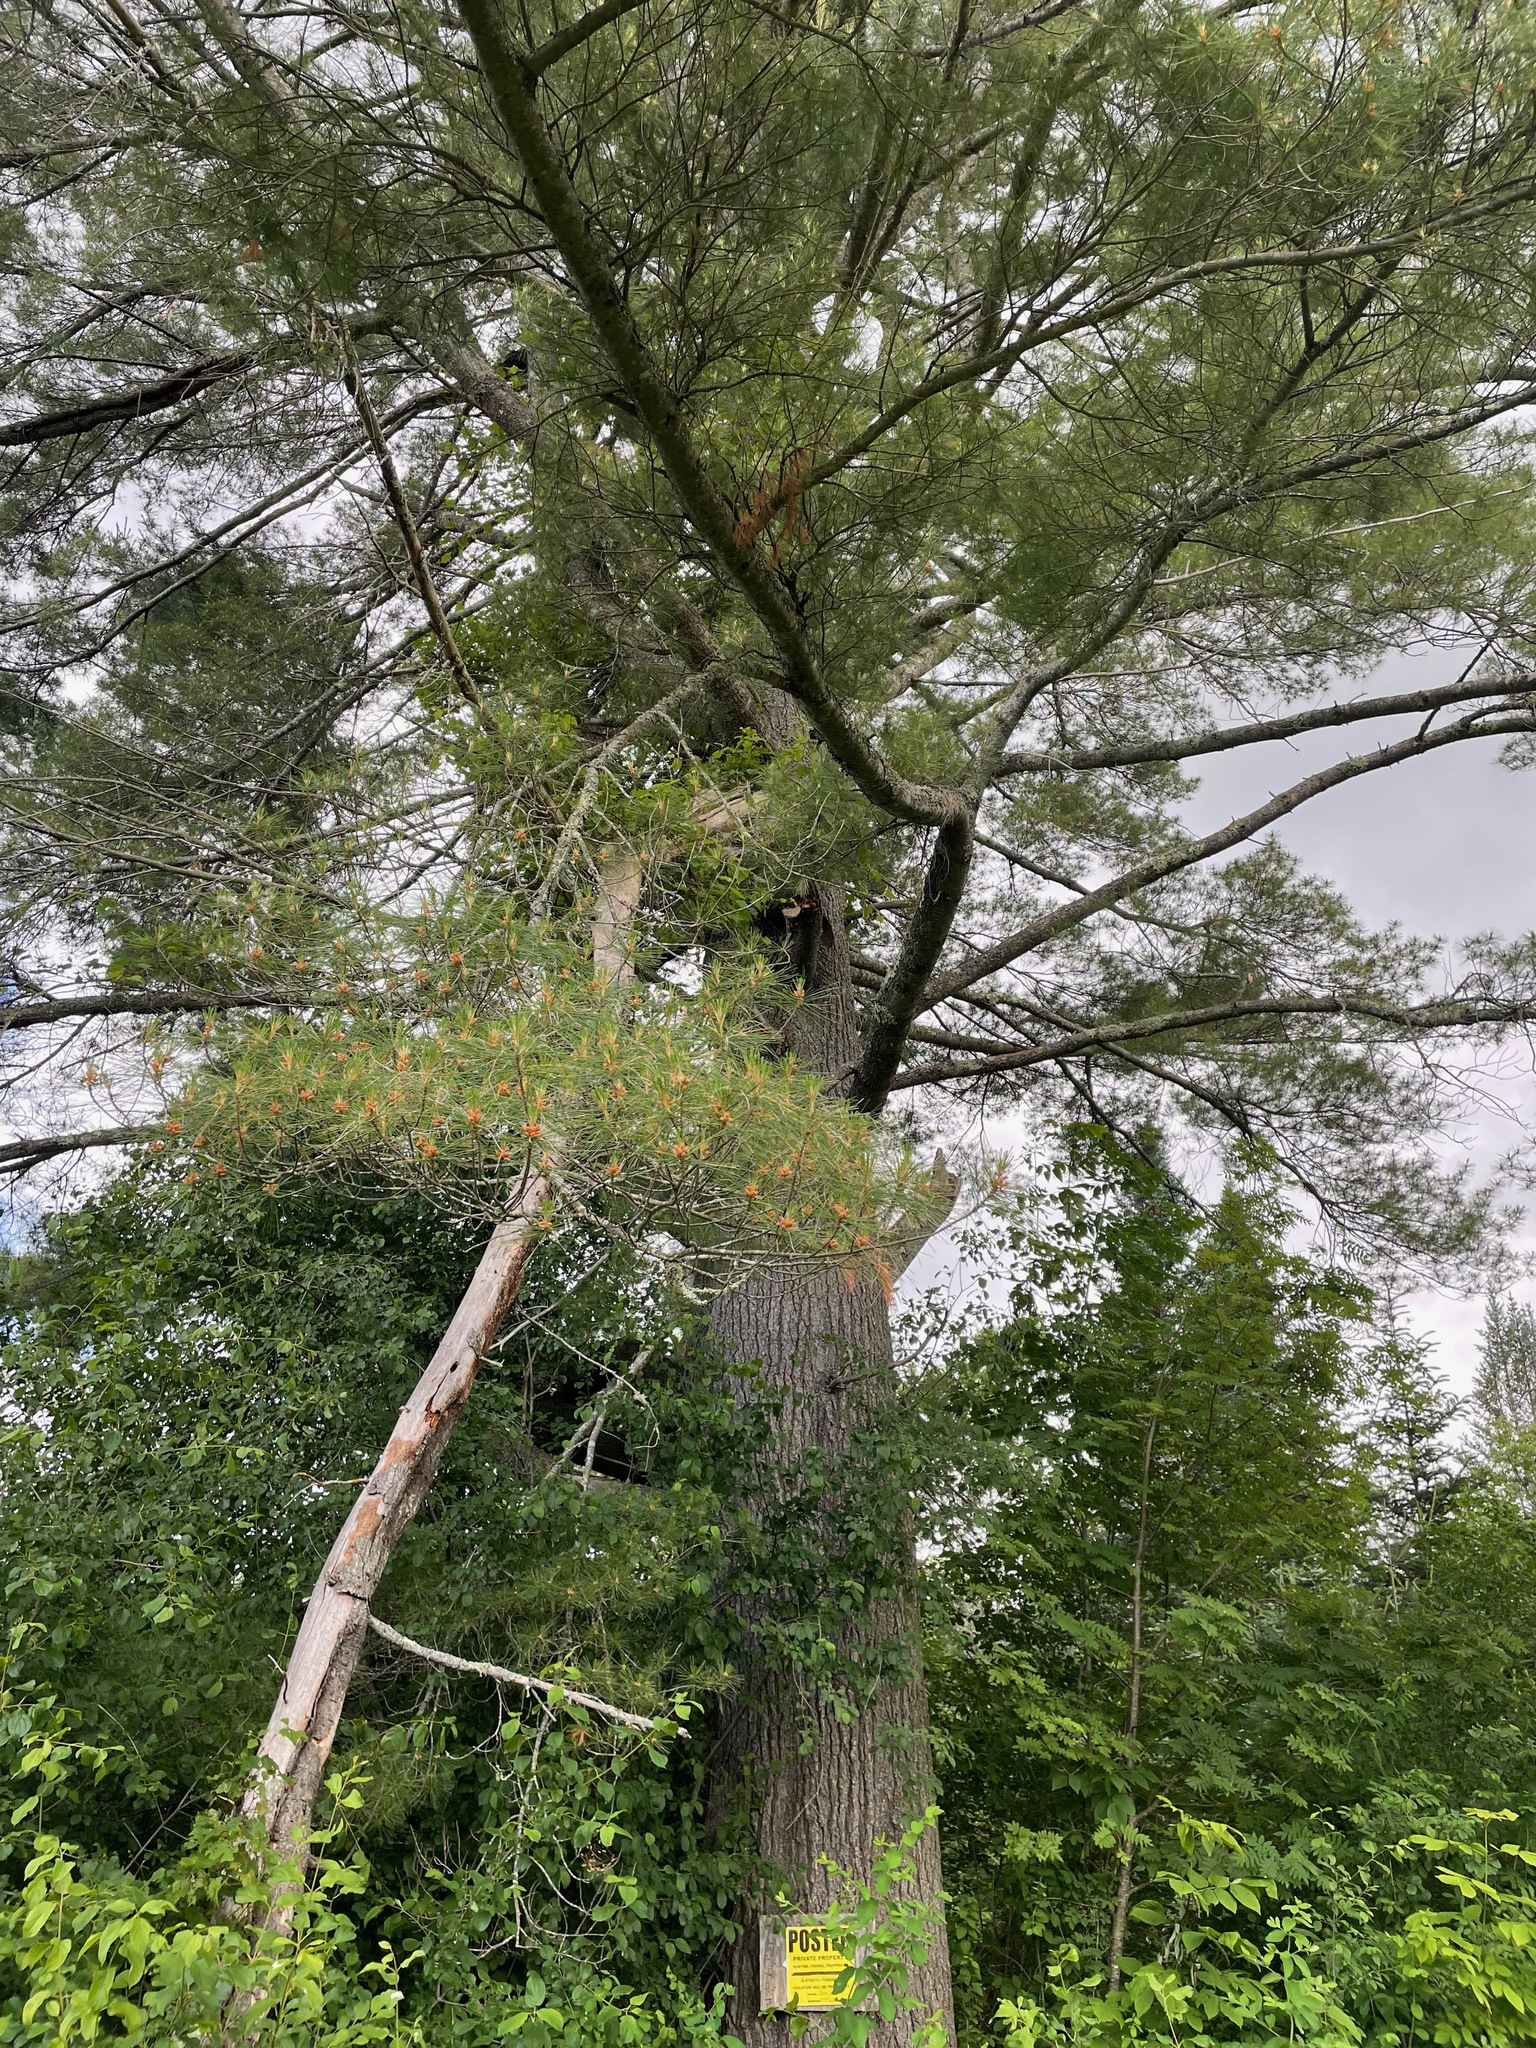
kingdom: Plantae
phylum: Tracheophyta
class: Pinopsida
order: Pinales
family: Pinaceae
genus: Pinus
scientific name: Pinus strobus
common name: Weymouth pine
